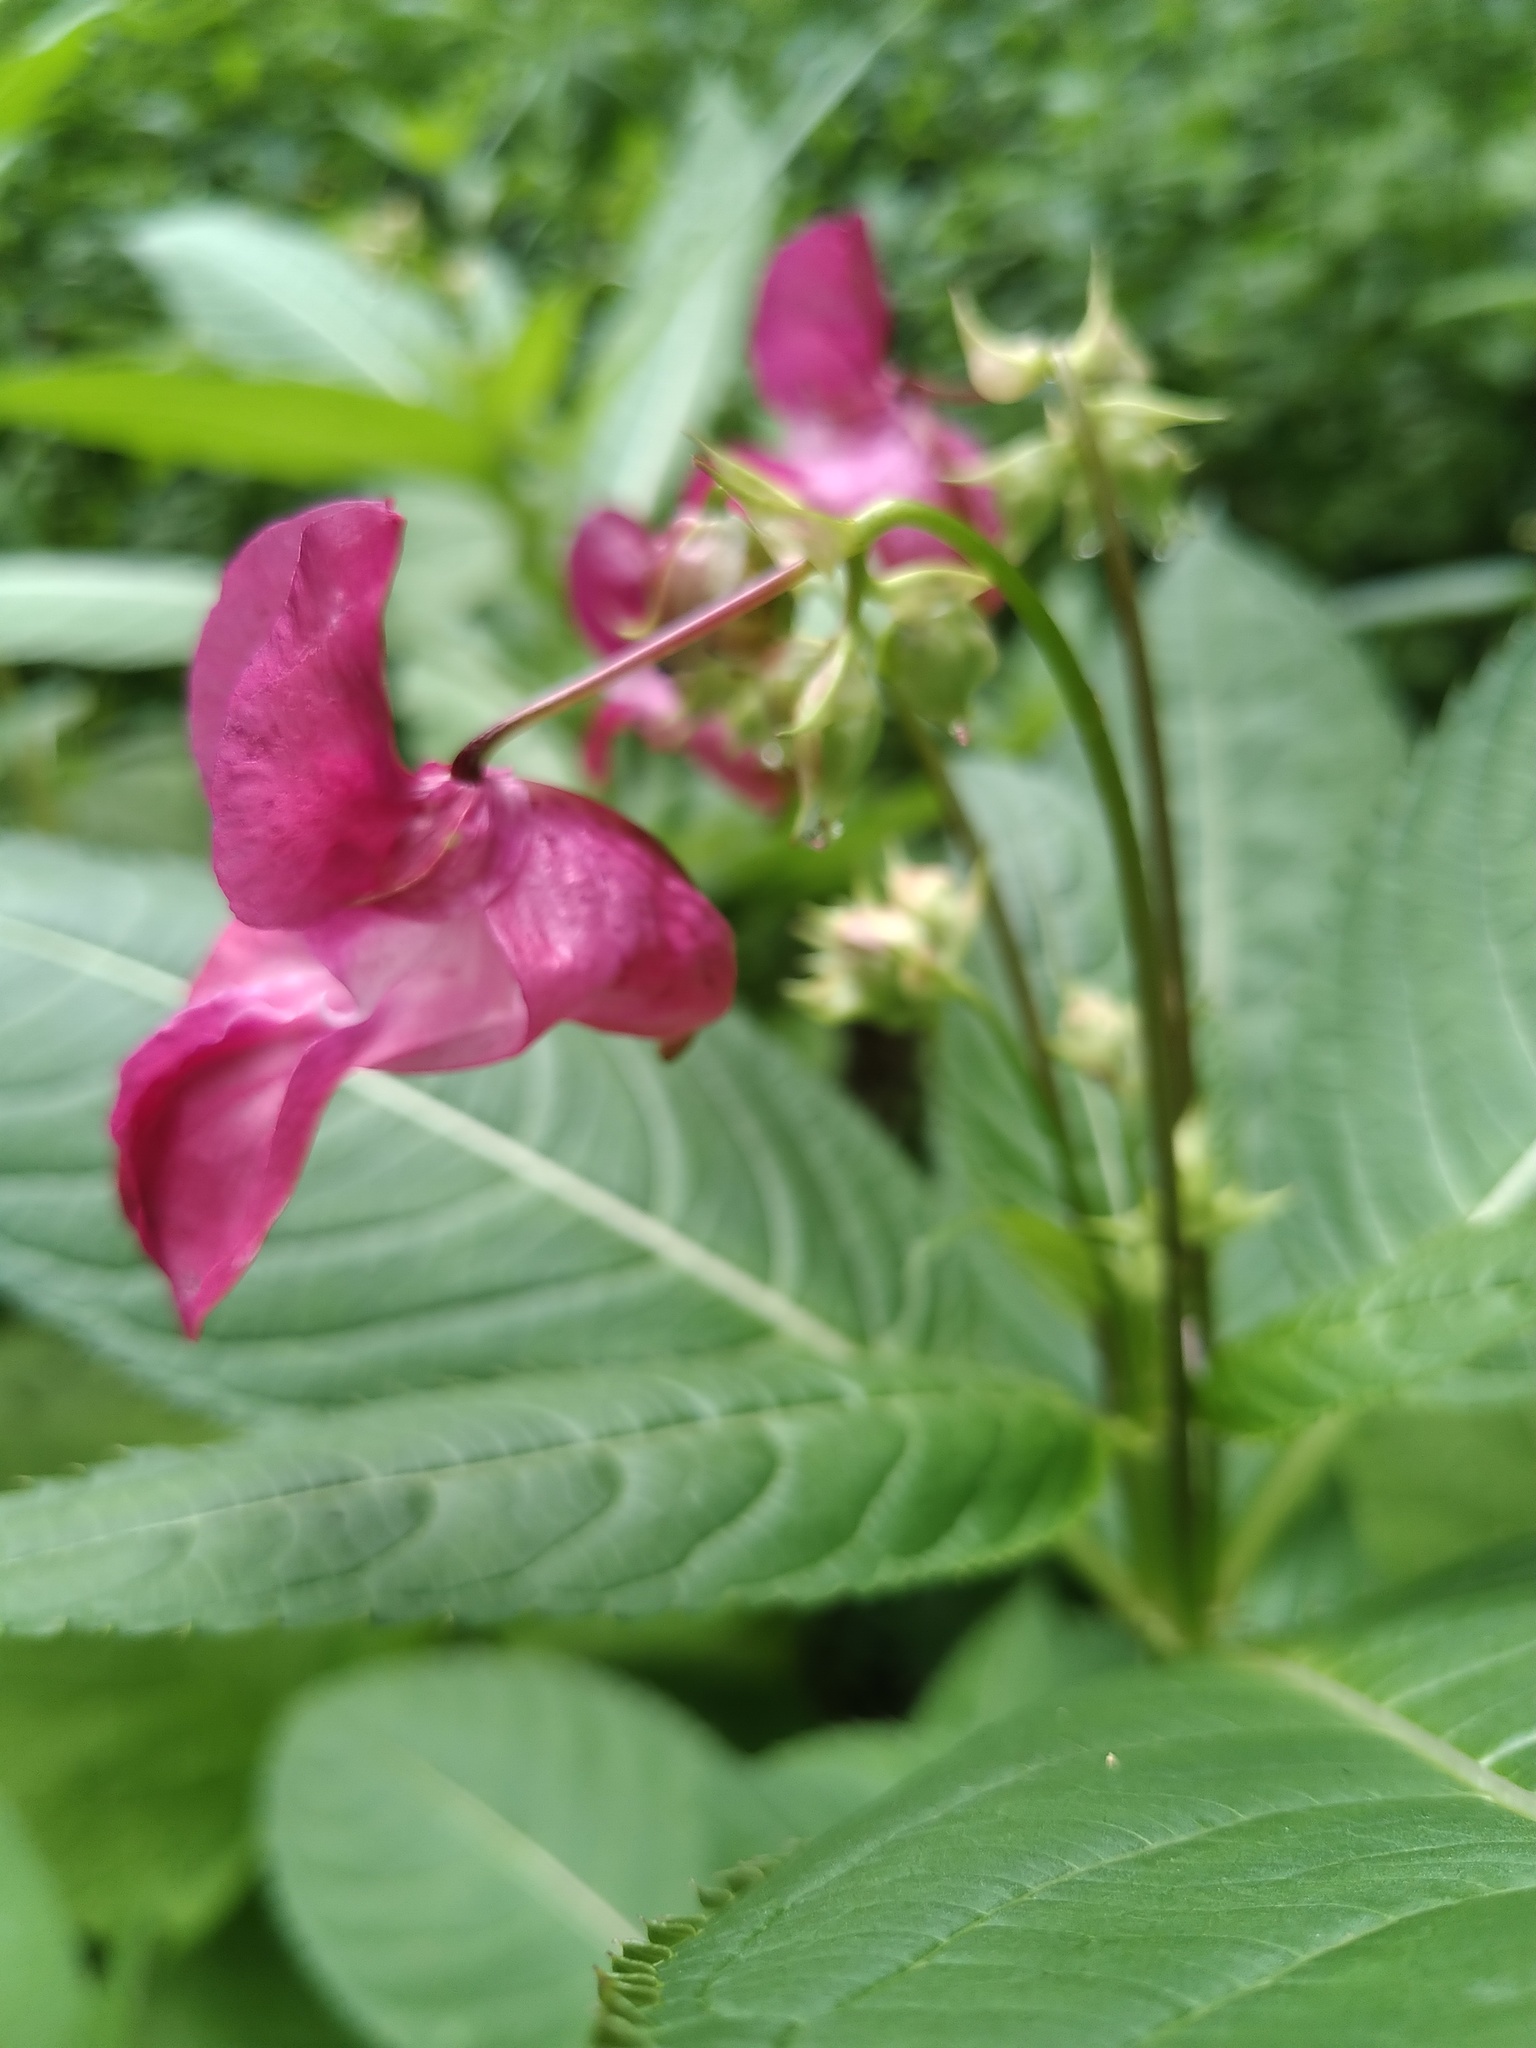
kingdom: Plantae
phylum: Tracheophyta
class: Magnoliopsida
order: Ericales
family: Balsaminaceae
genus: Impatiens
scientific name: Impatiens glandulifera
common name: Himalayan balsam
